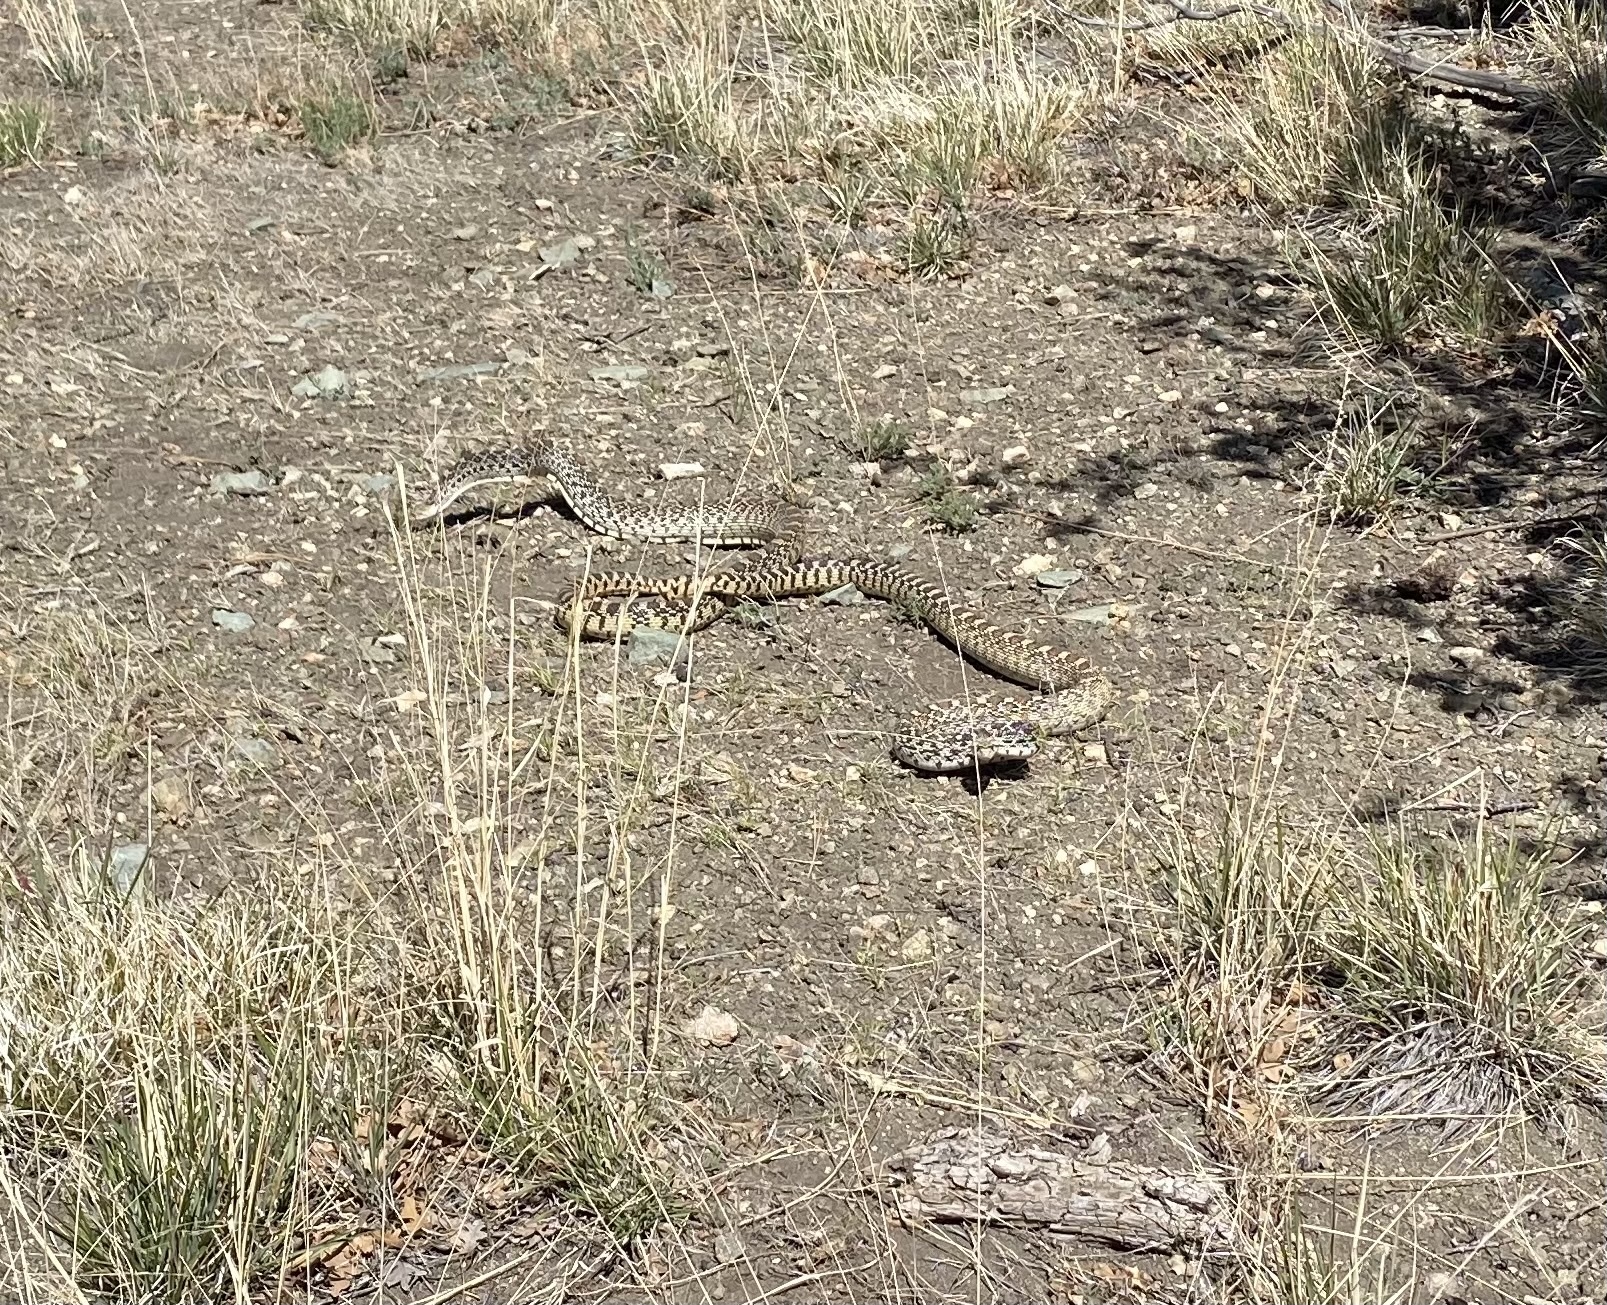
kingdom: Animalia
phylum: Chordata
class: Squamata
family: Colubridae
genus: Pituophis
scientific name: Pituophis catenifer
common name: Gopher snake
